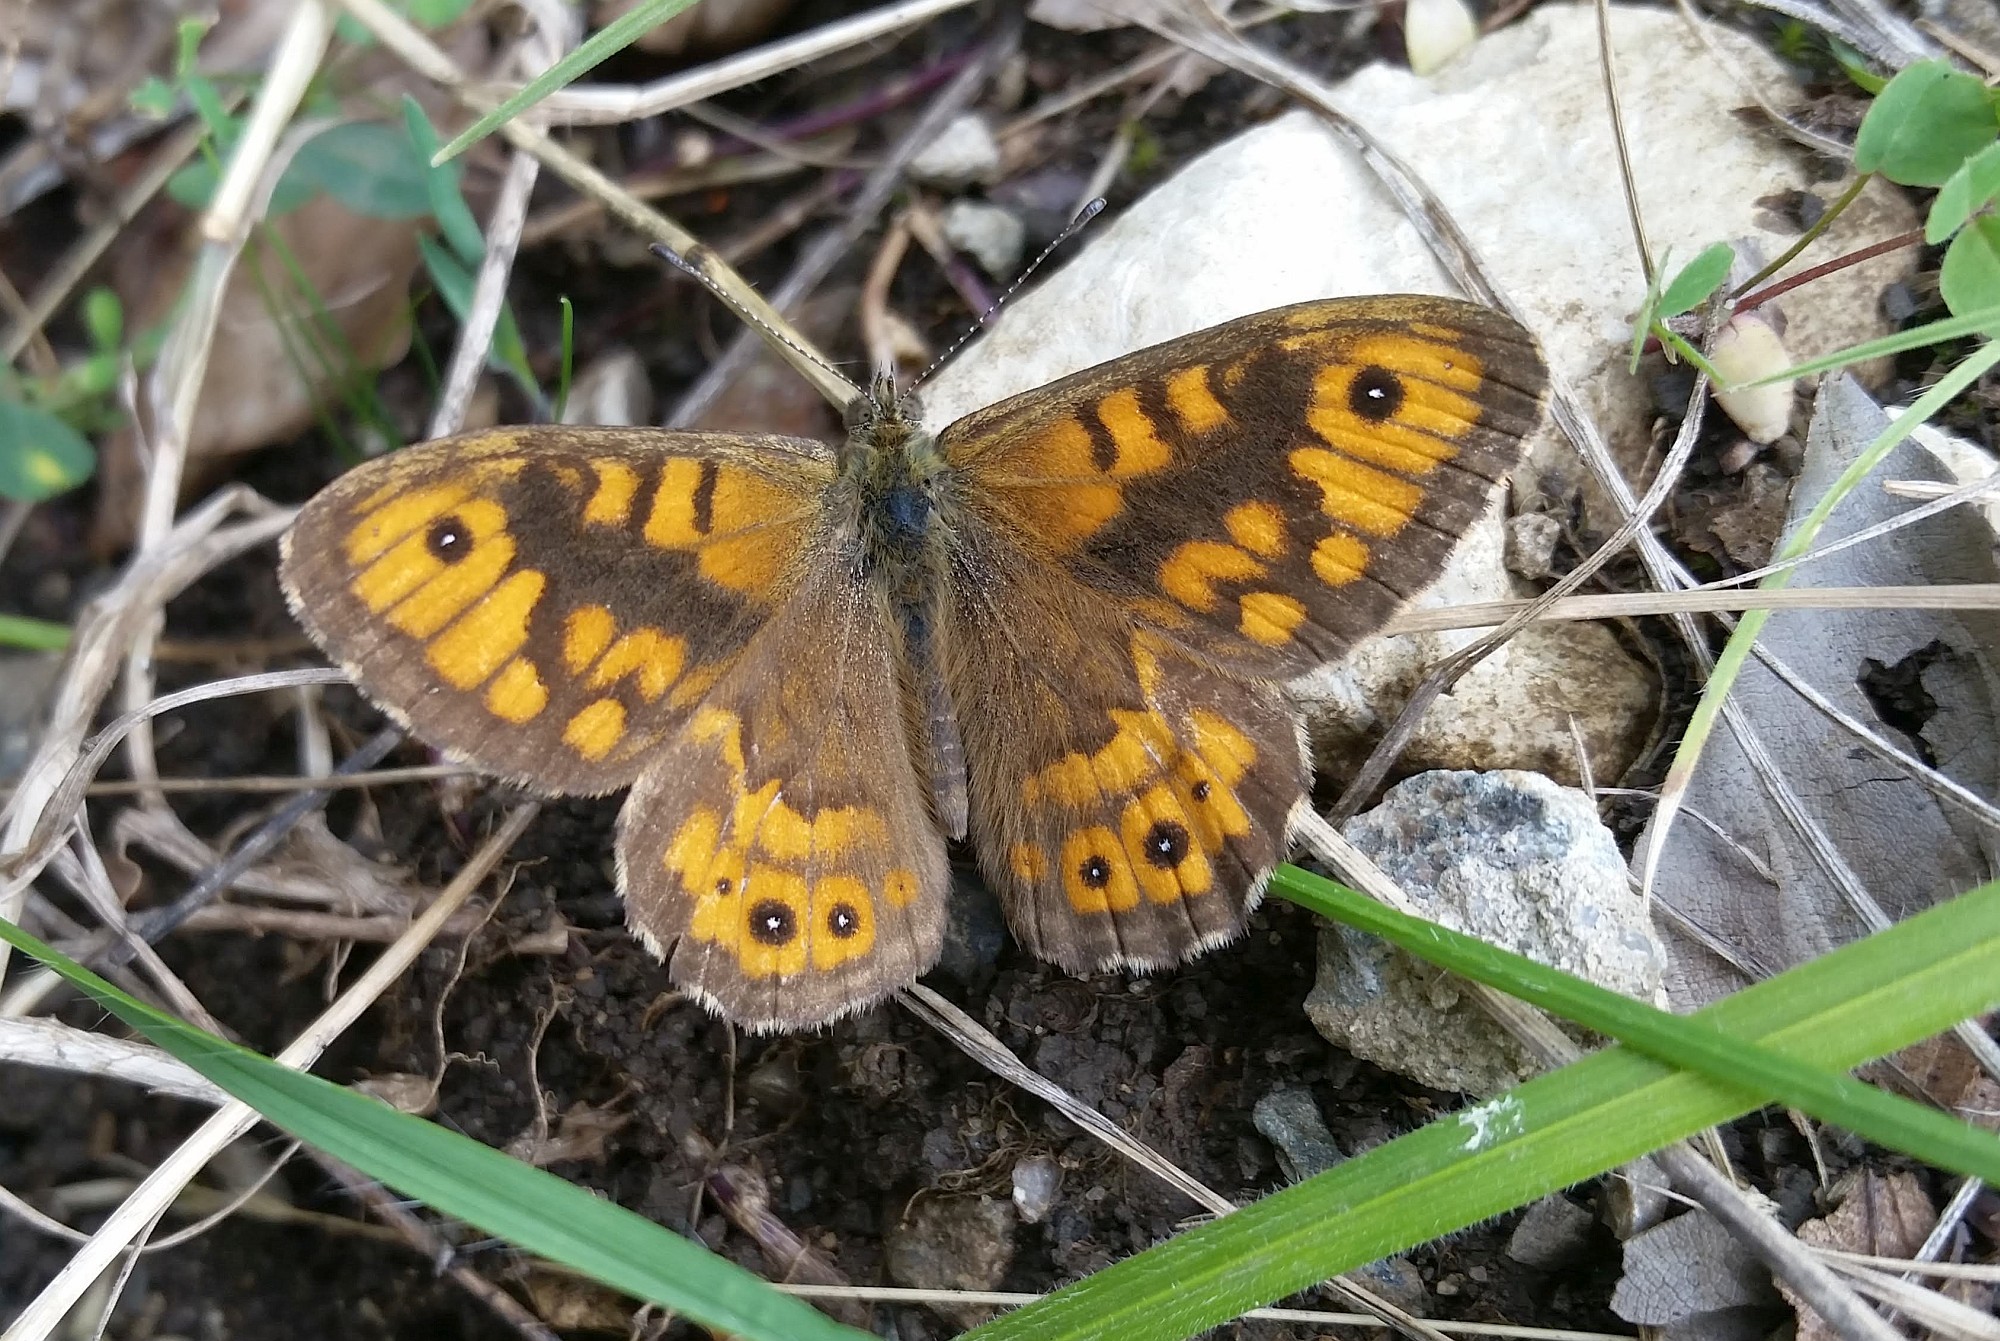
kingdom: Animalia
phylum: Arthropoda
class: Insecta
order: Lepidoptera
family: Nymphalidae
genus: Pararge
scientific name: Pararge Lasiommata megera
